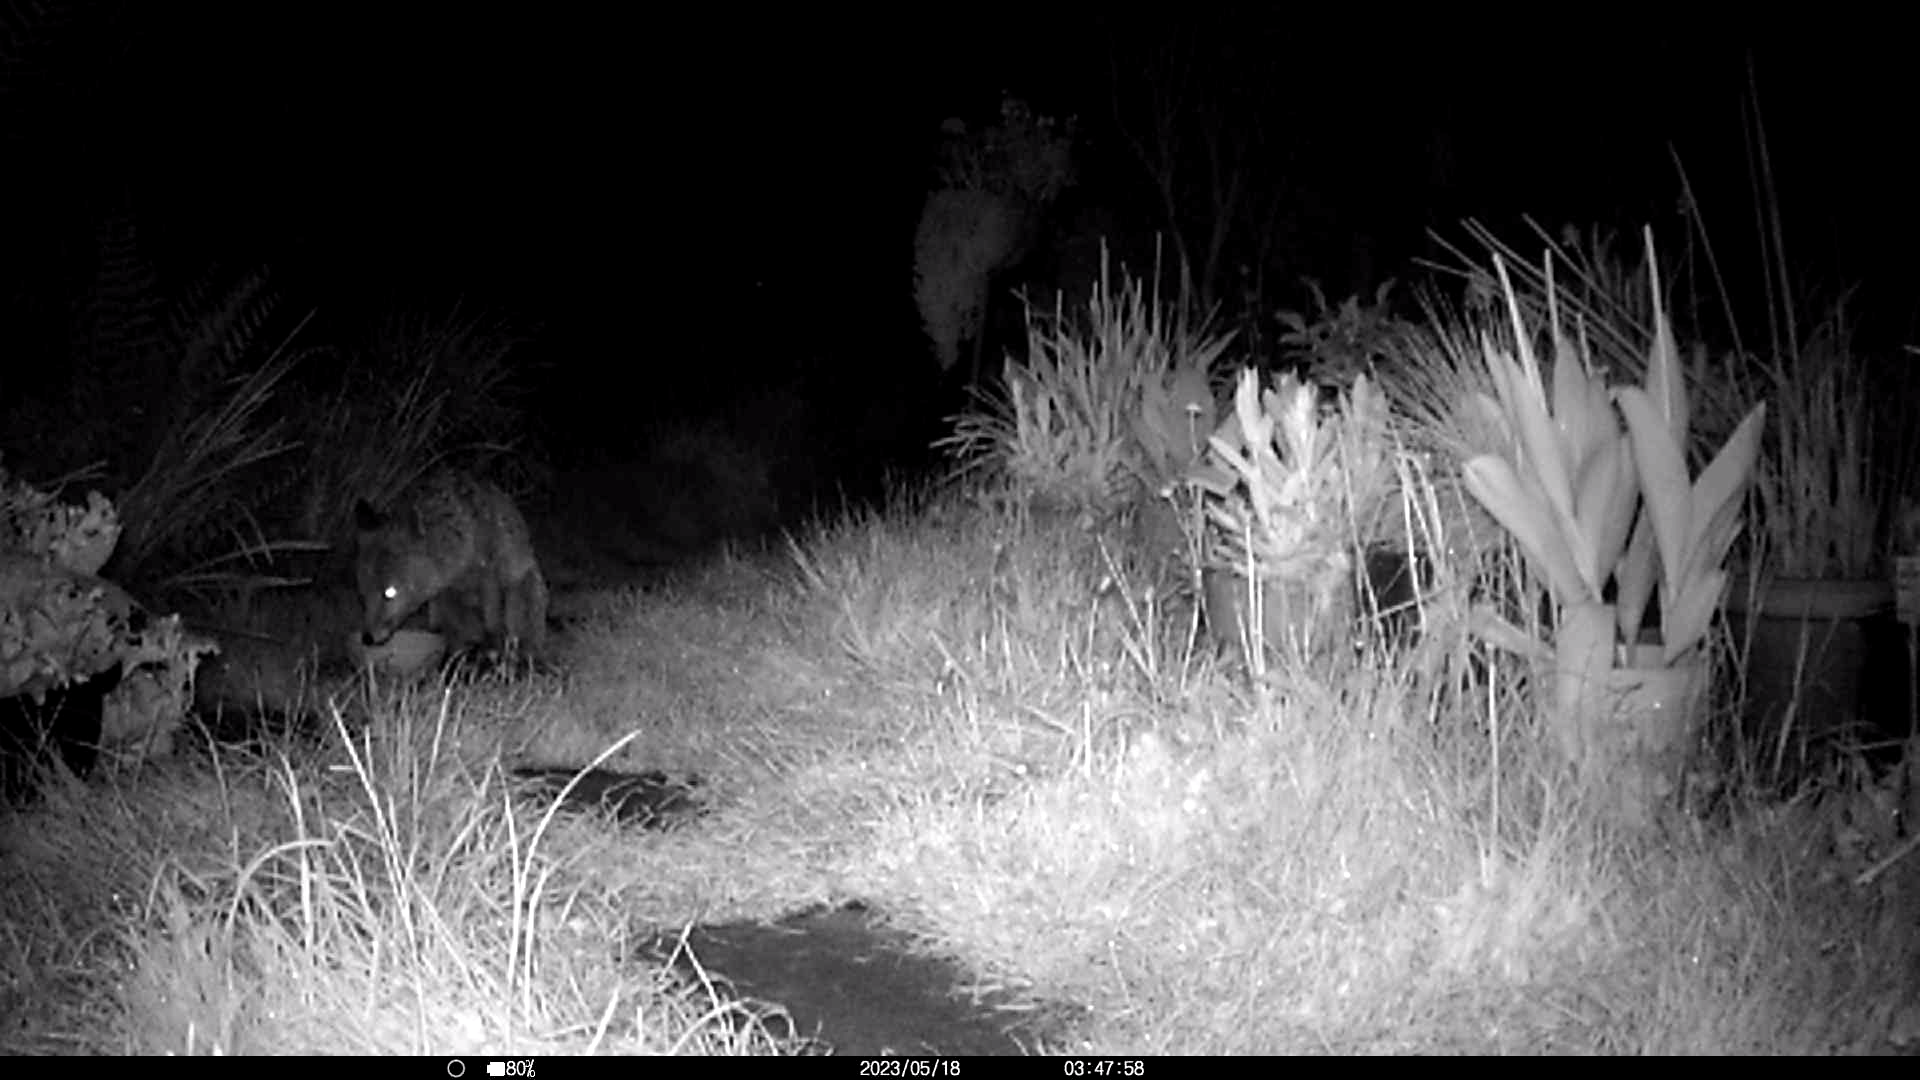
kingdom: Animalia
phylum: Chordata
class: Mammalia
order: Carnivora
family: Canidae
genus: Vulpes
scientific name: Vulpes vulpes
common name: Red fox
